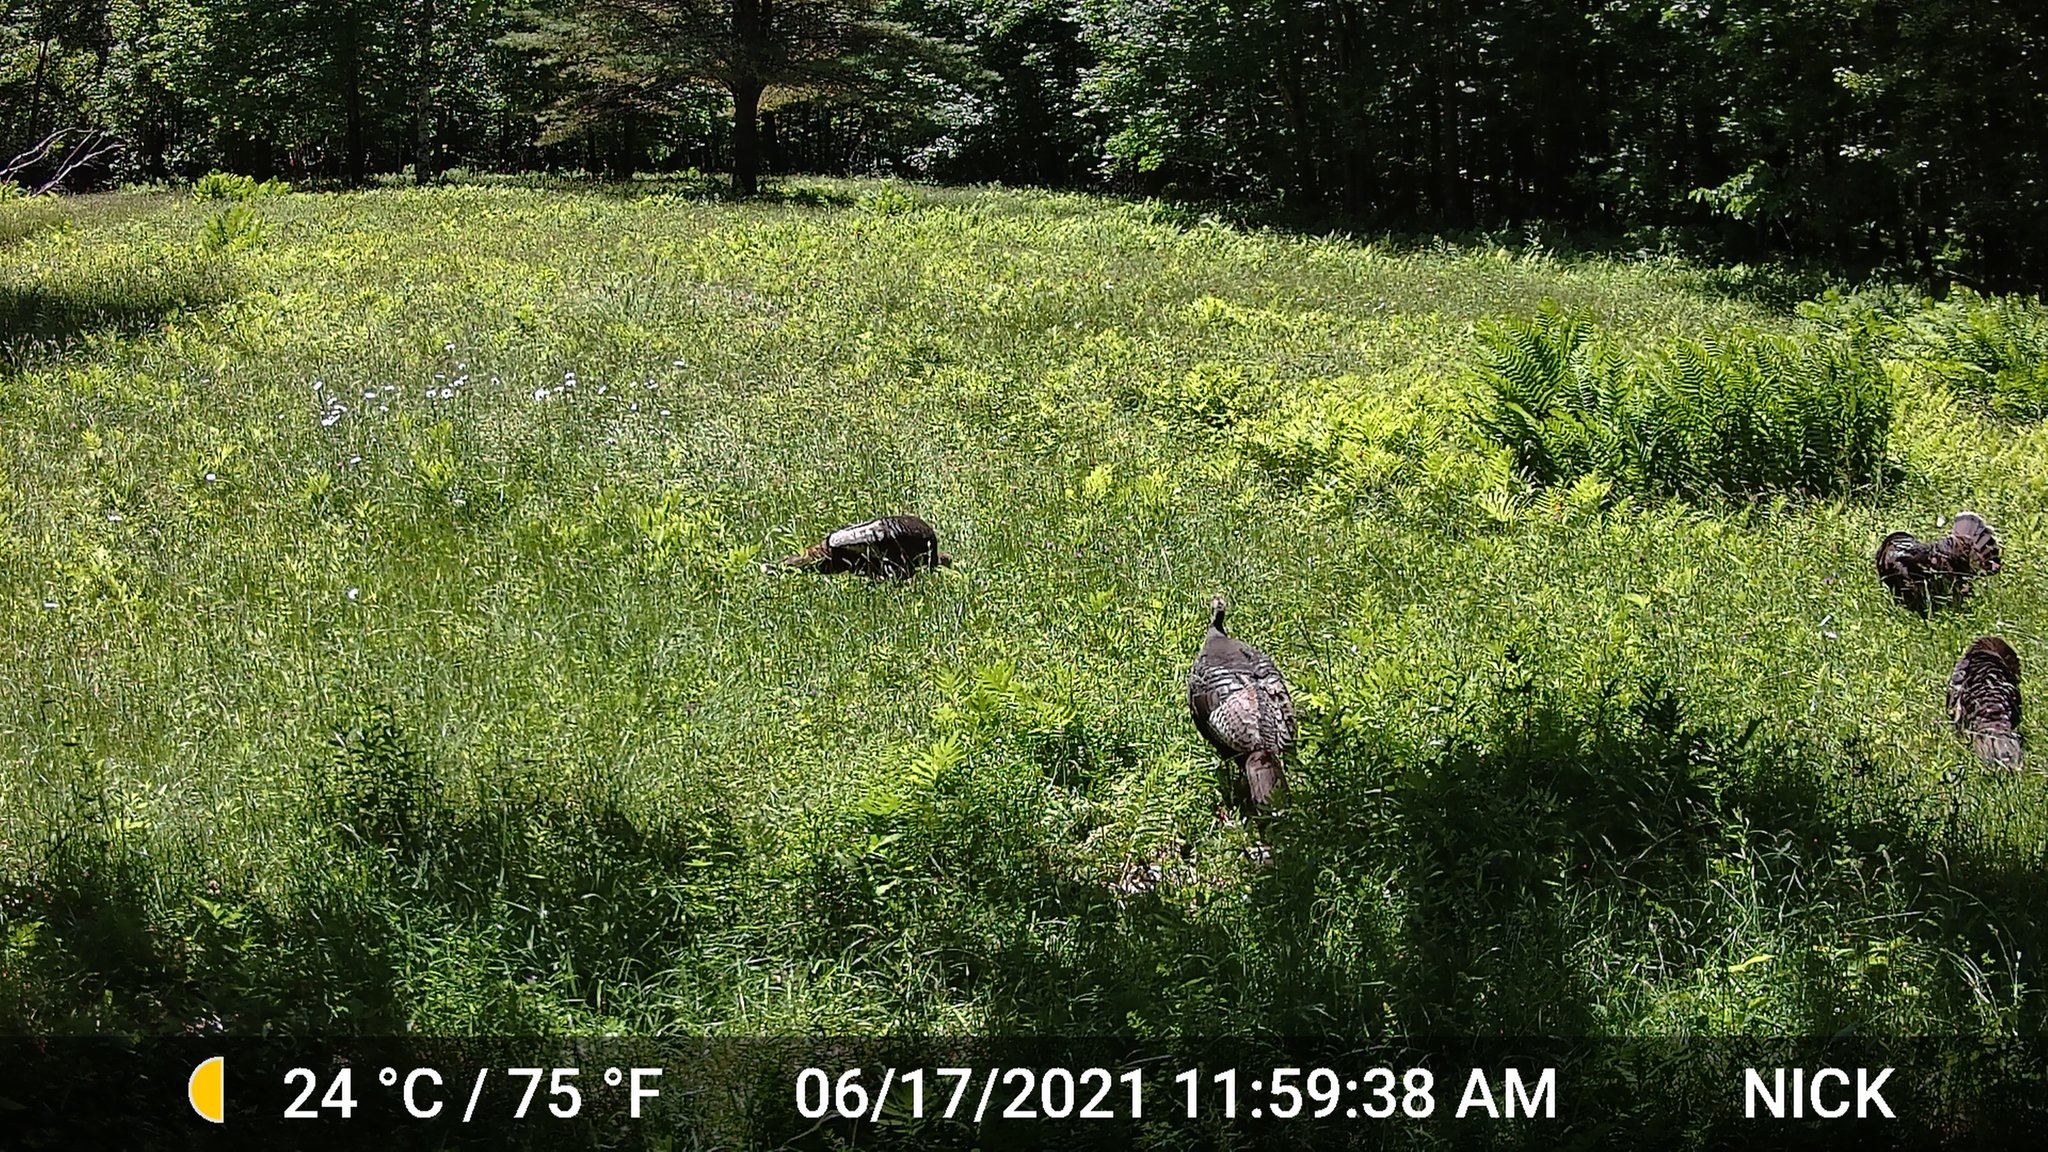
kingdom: Animalia
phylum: Chordata
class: Aves
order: Galliformes
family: Phasianidae
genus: Meleagris
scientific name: Meleagris gallopavo
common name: Wild turkey
